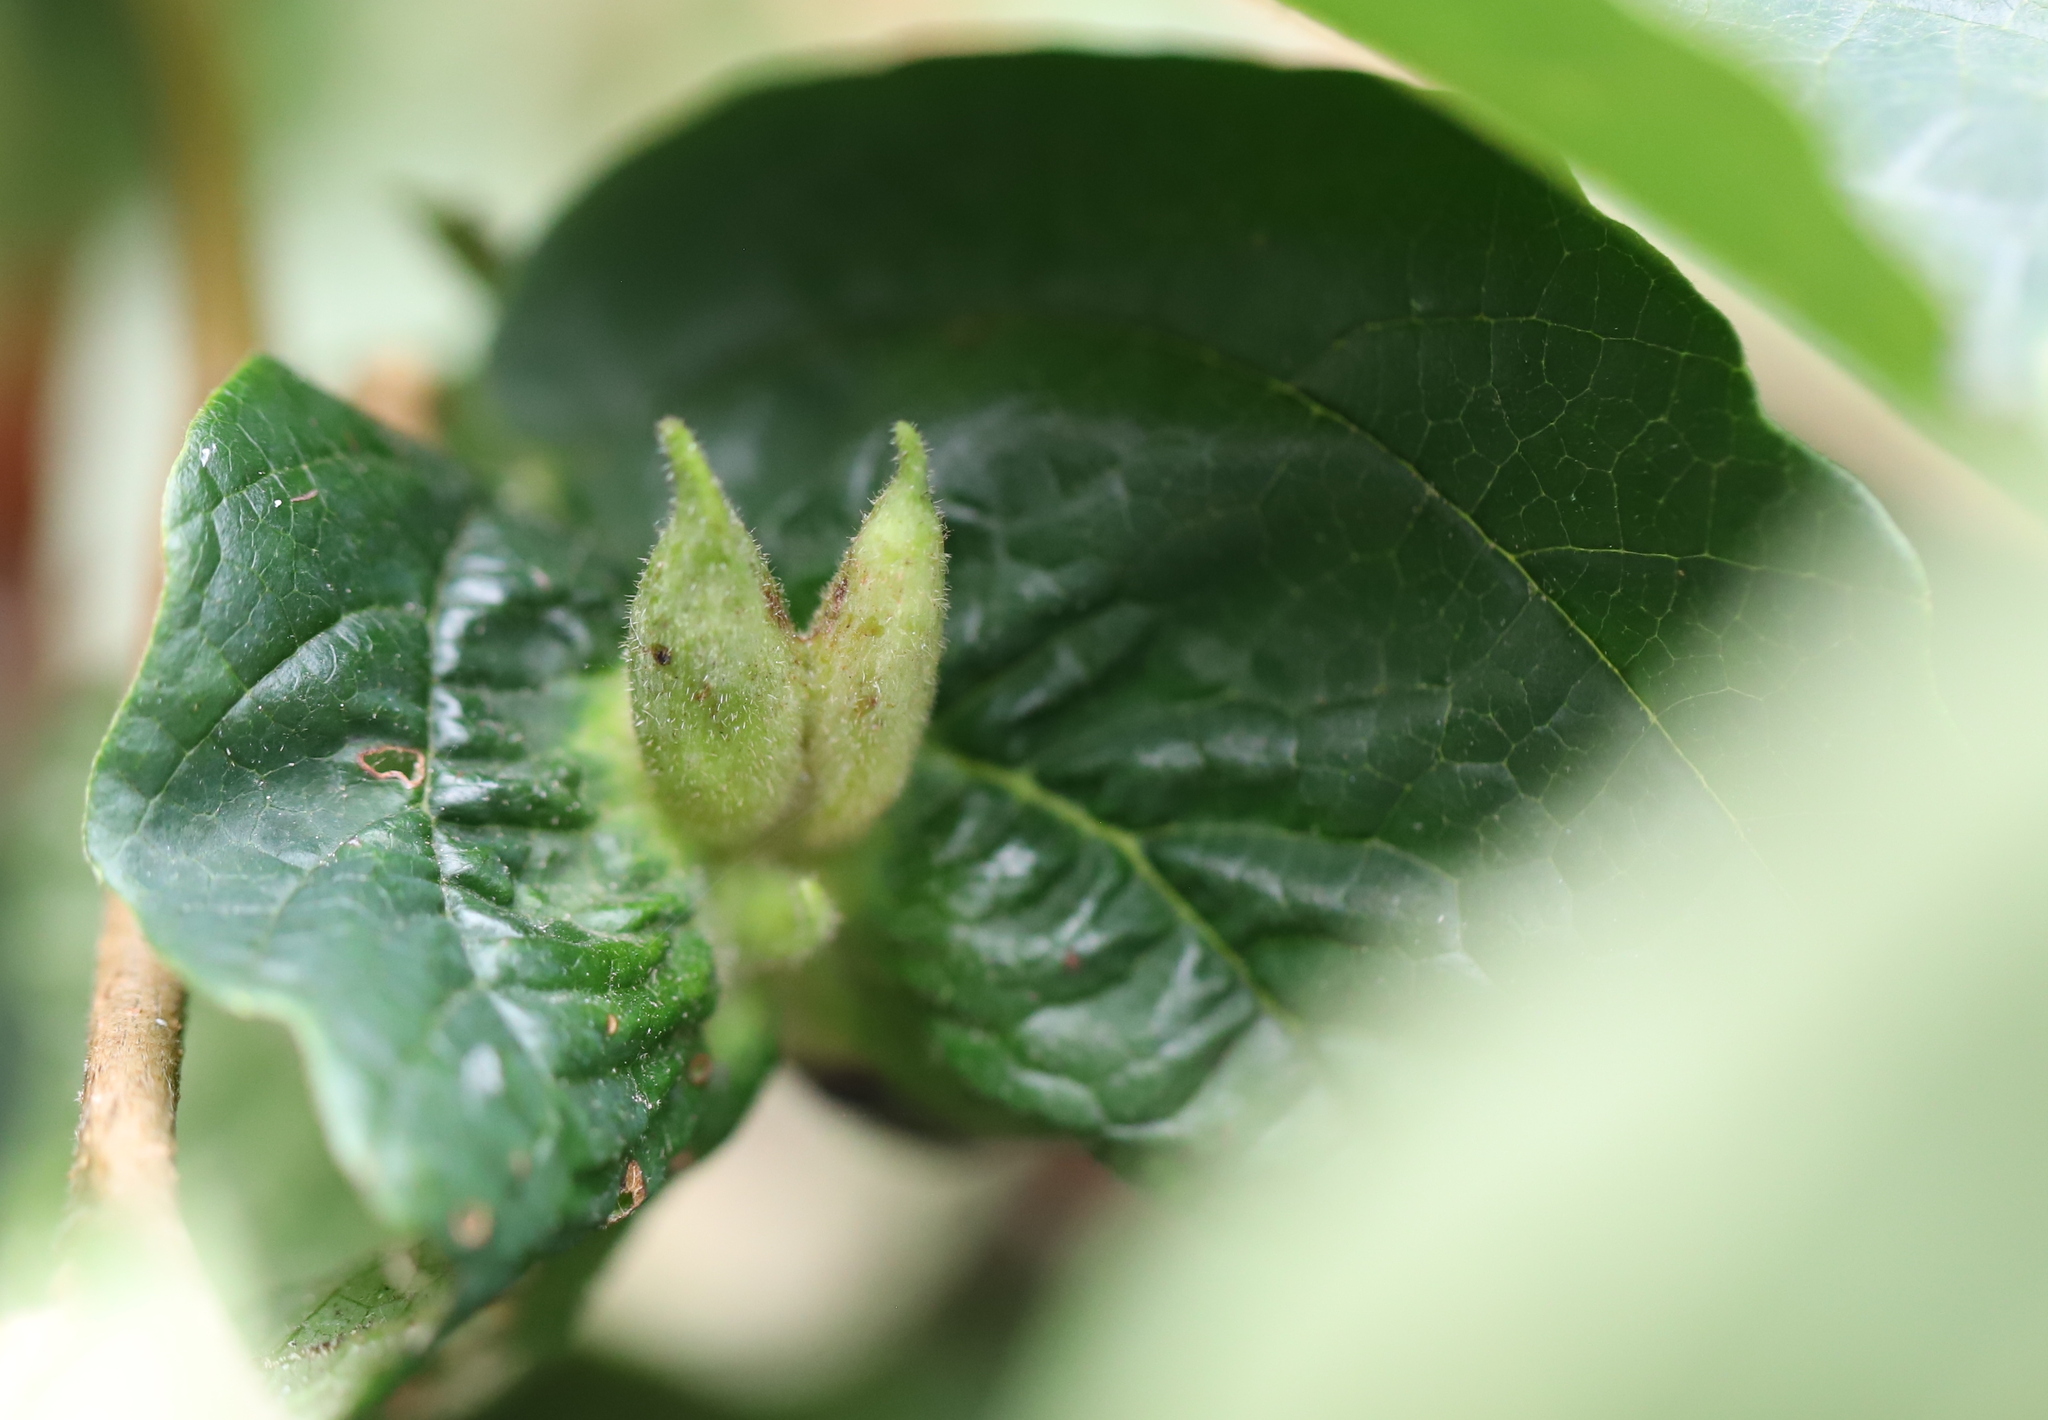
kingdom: Animalia
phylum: Arthropoda
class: Insecta
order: Hemiptera
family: Aphididae
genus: Hormaphis
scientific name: Hormaphis hamamelidis
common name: Witch-hazel cone gall aphid
